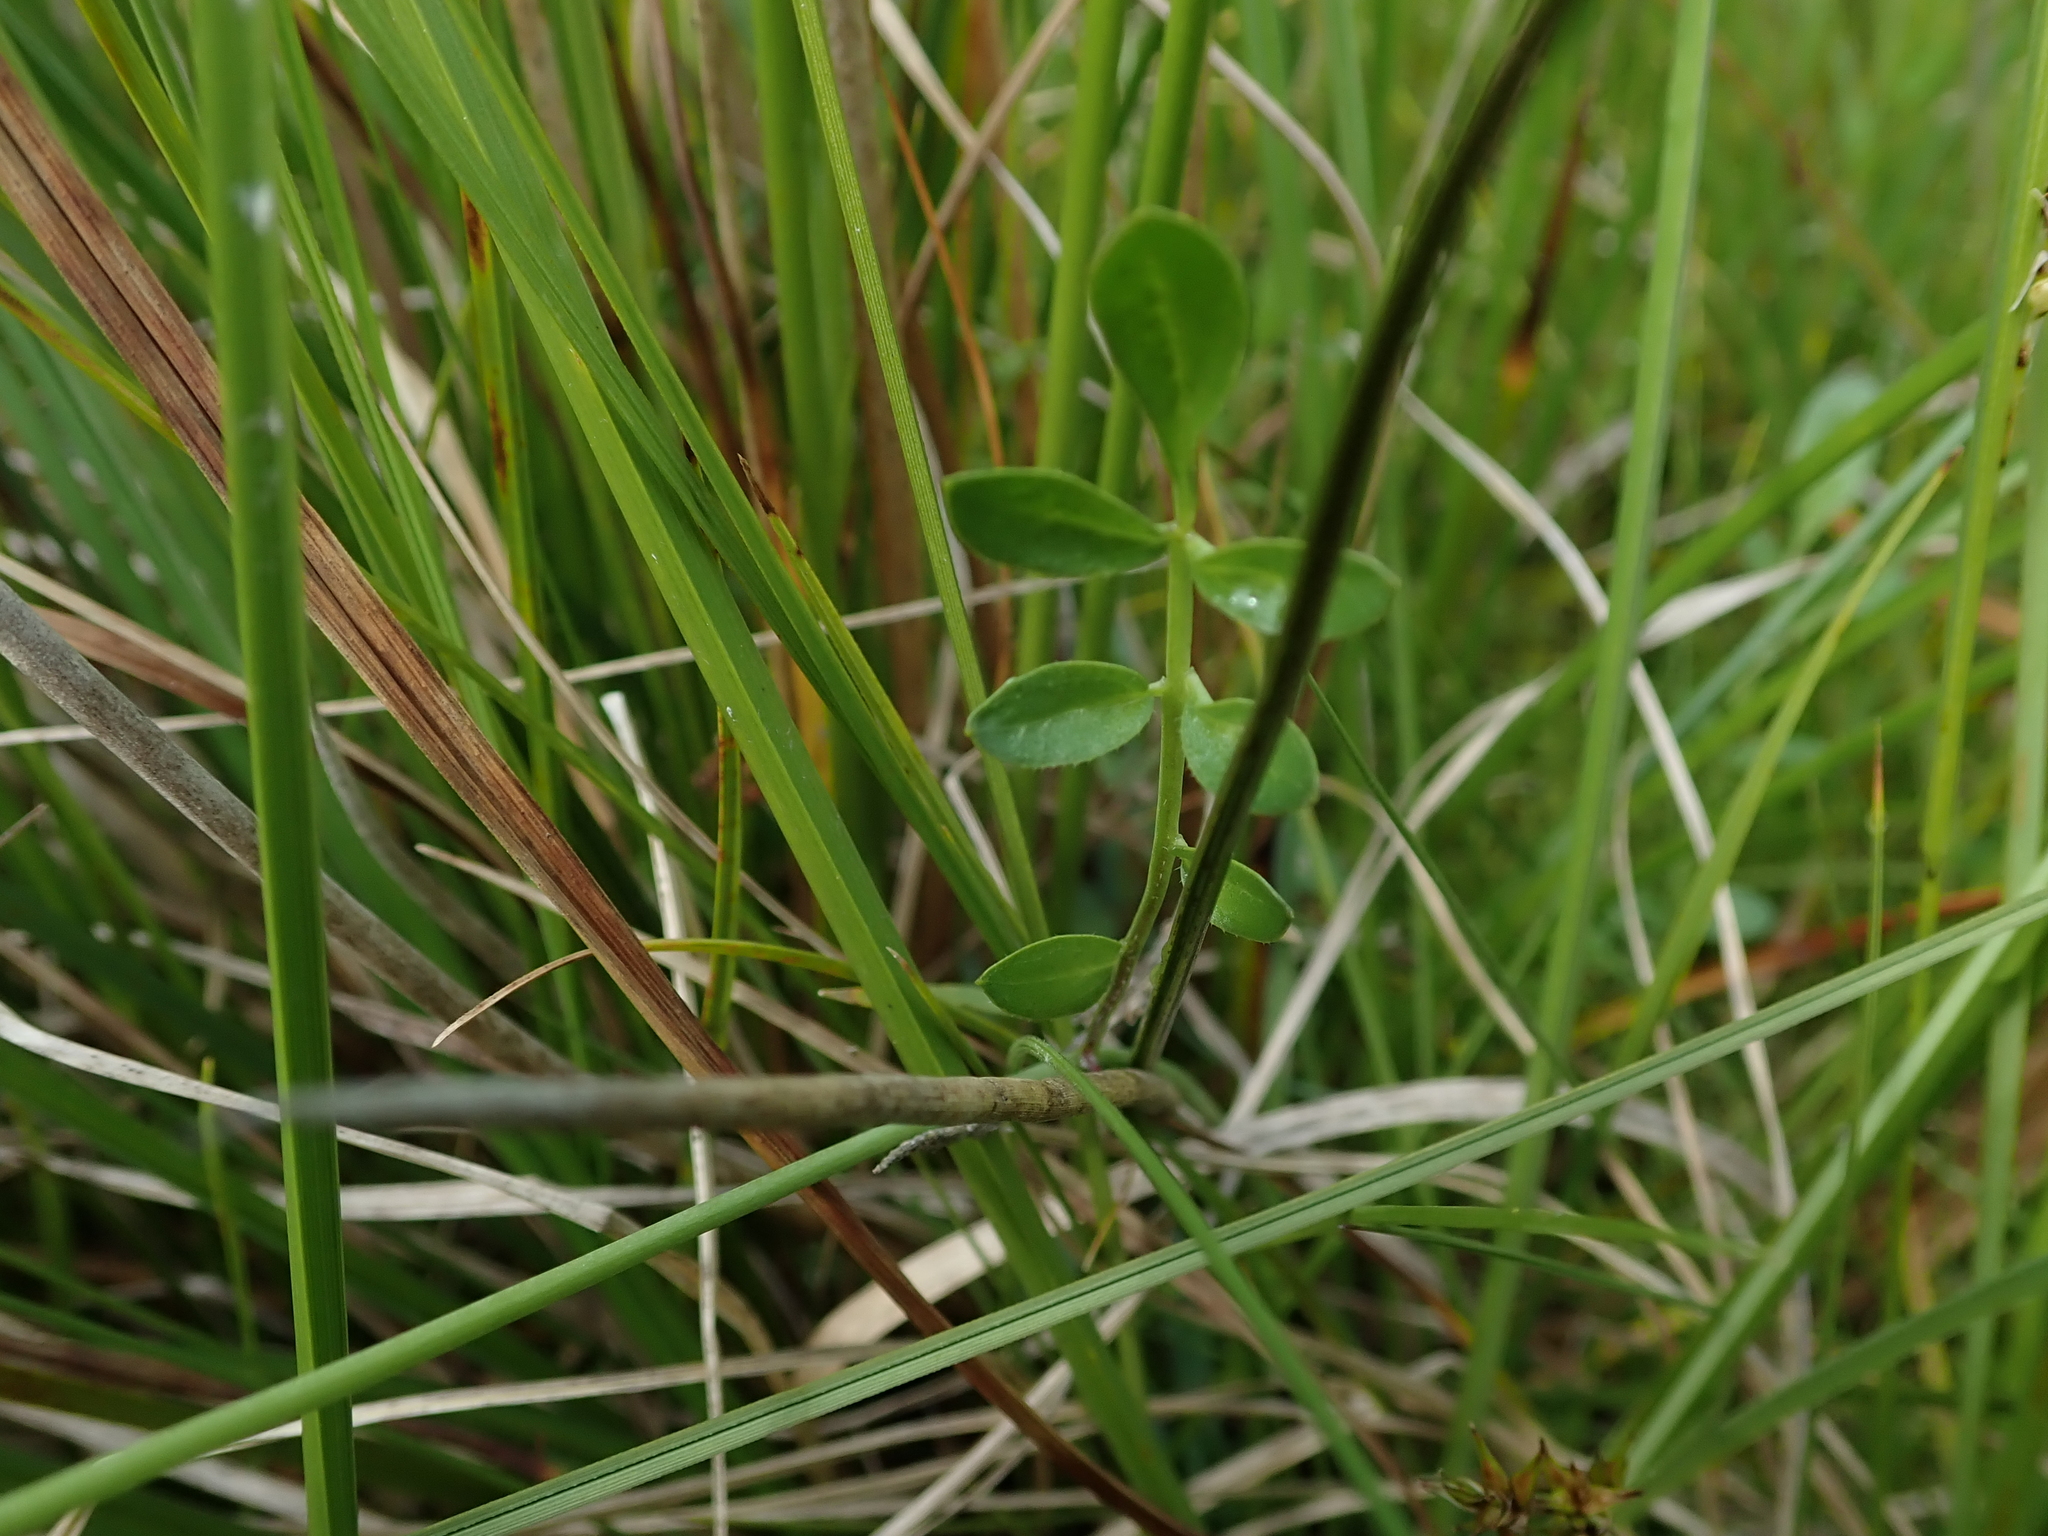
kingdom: Plantae
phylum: Tracheophyta
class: Magnoliopsida
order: Brassicales
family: Brassicaceae
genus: Cardamine
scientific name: Cardamine pratensis
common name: Cuckoo flower
